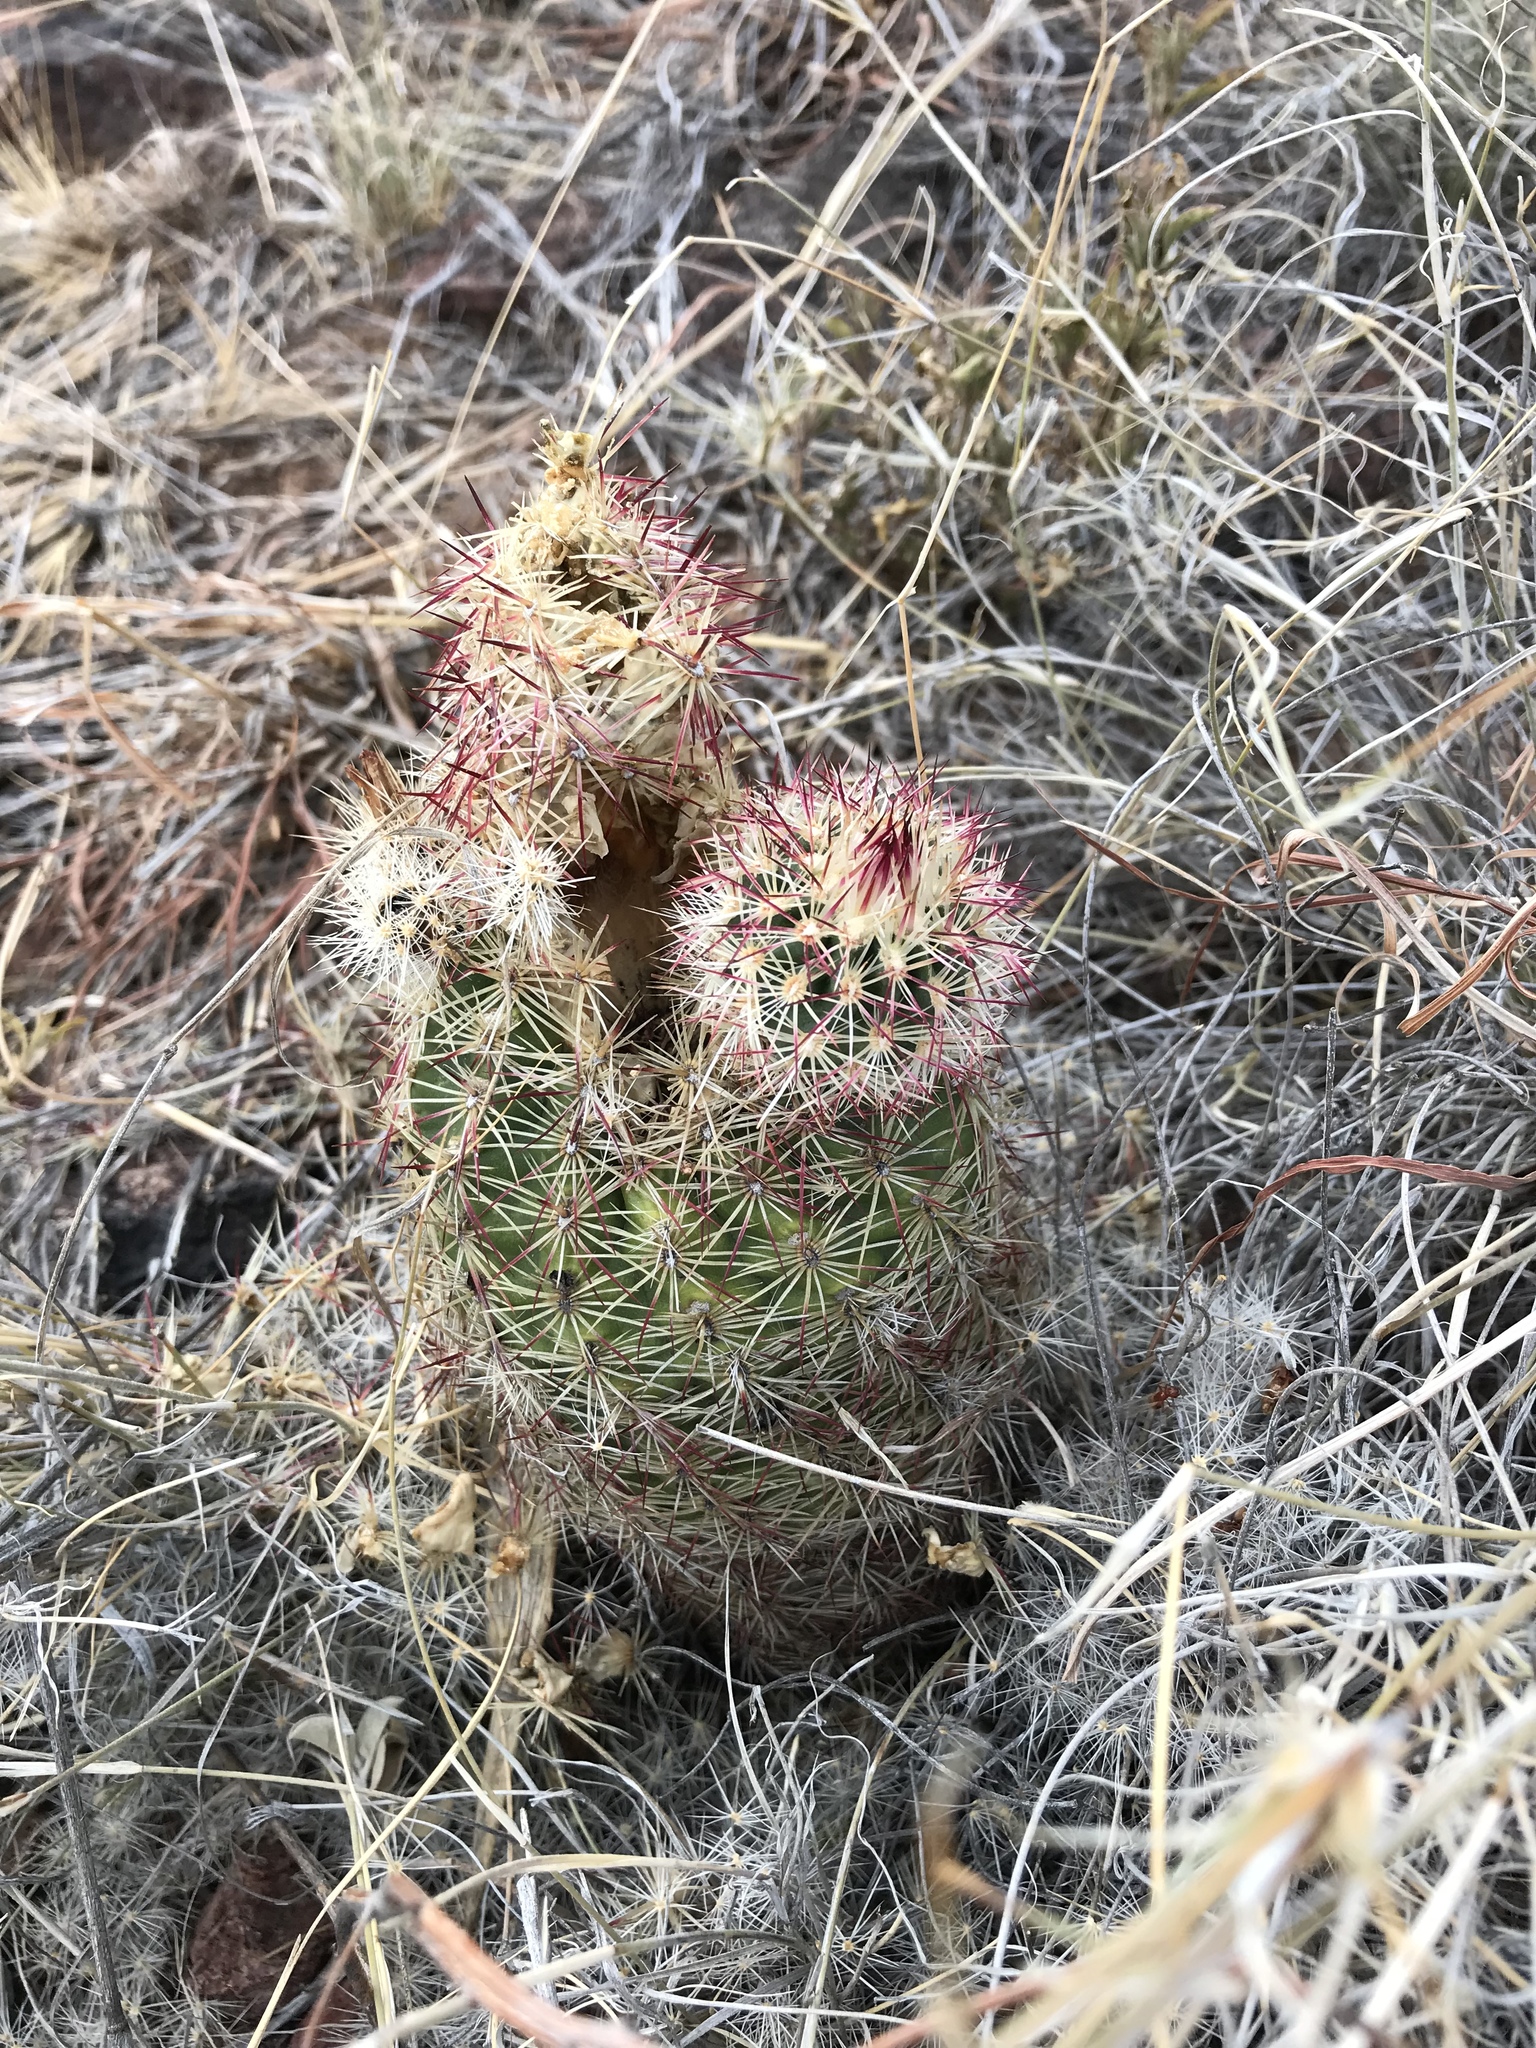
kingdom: Plantae
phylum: Tracheophyta
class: Magnoliopsida
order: Caryophyllales
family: Cactaceae
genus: Echinocereus
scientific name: Echinocereus viridiflorus
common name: Nylon hedgehog cactus
